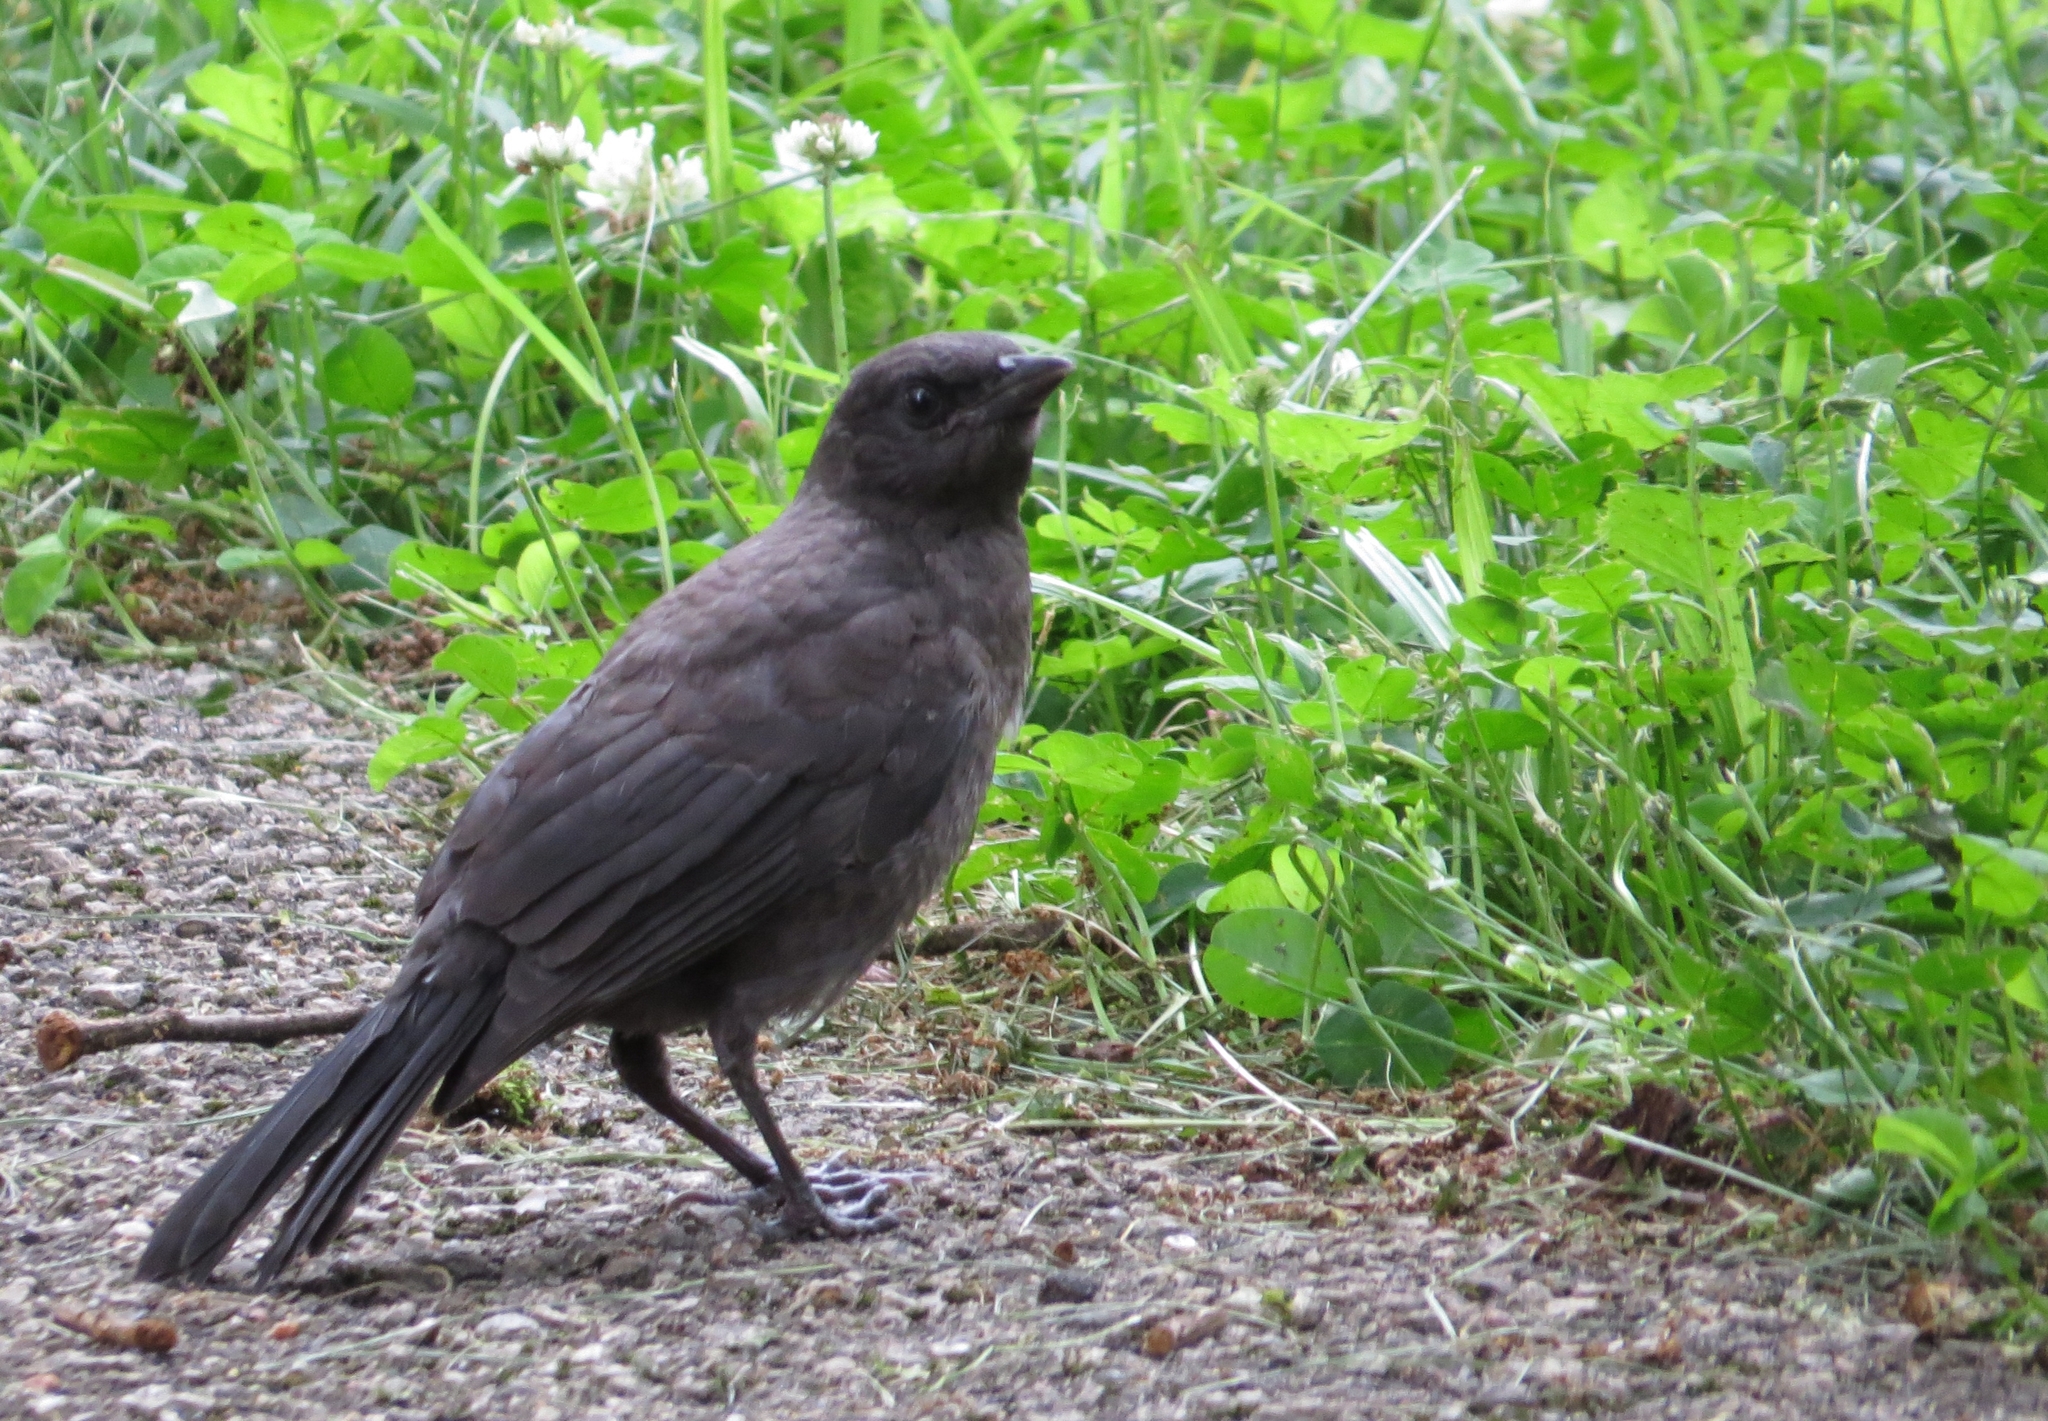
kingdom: Animalia
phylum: Chordata
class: Aves
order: Passeriformes
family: Icteridae
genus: Quiscalus
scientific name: Quiscalus quiscula
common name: Common grackle
